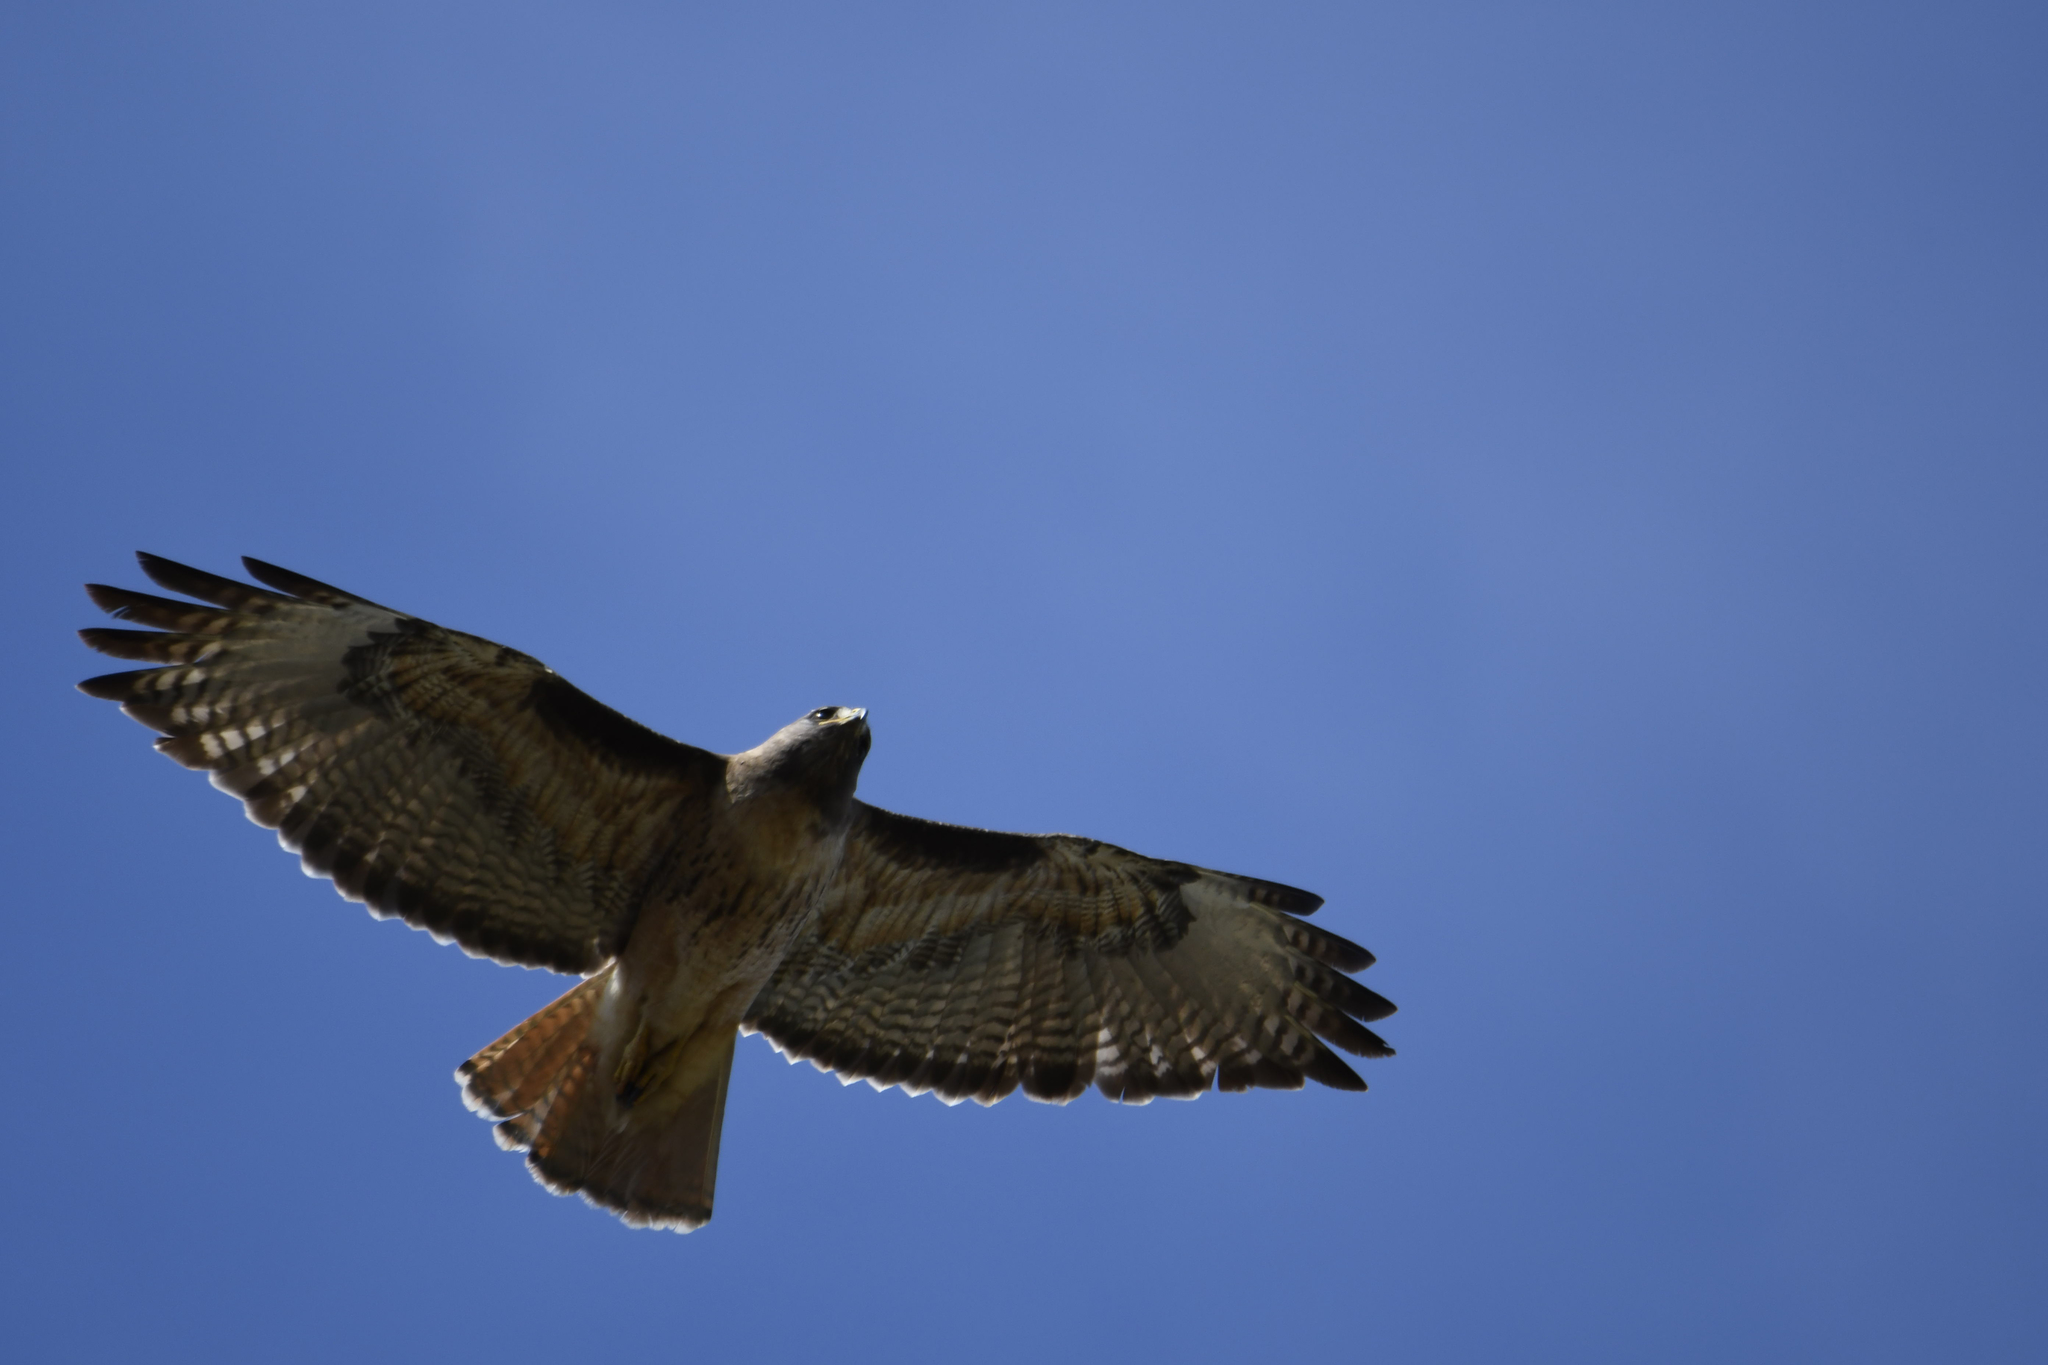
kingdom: Animalia
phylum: Chordata
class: Aves
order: Accipitriformes
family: Accipitridae
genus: Buteo
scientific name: Buteo jamaicensis
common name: Red-tailed hawk
